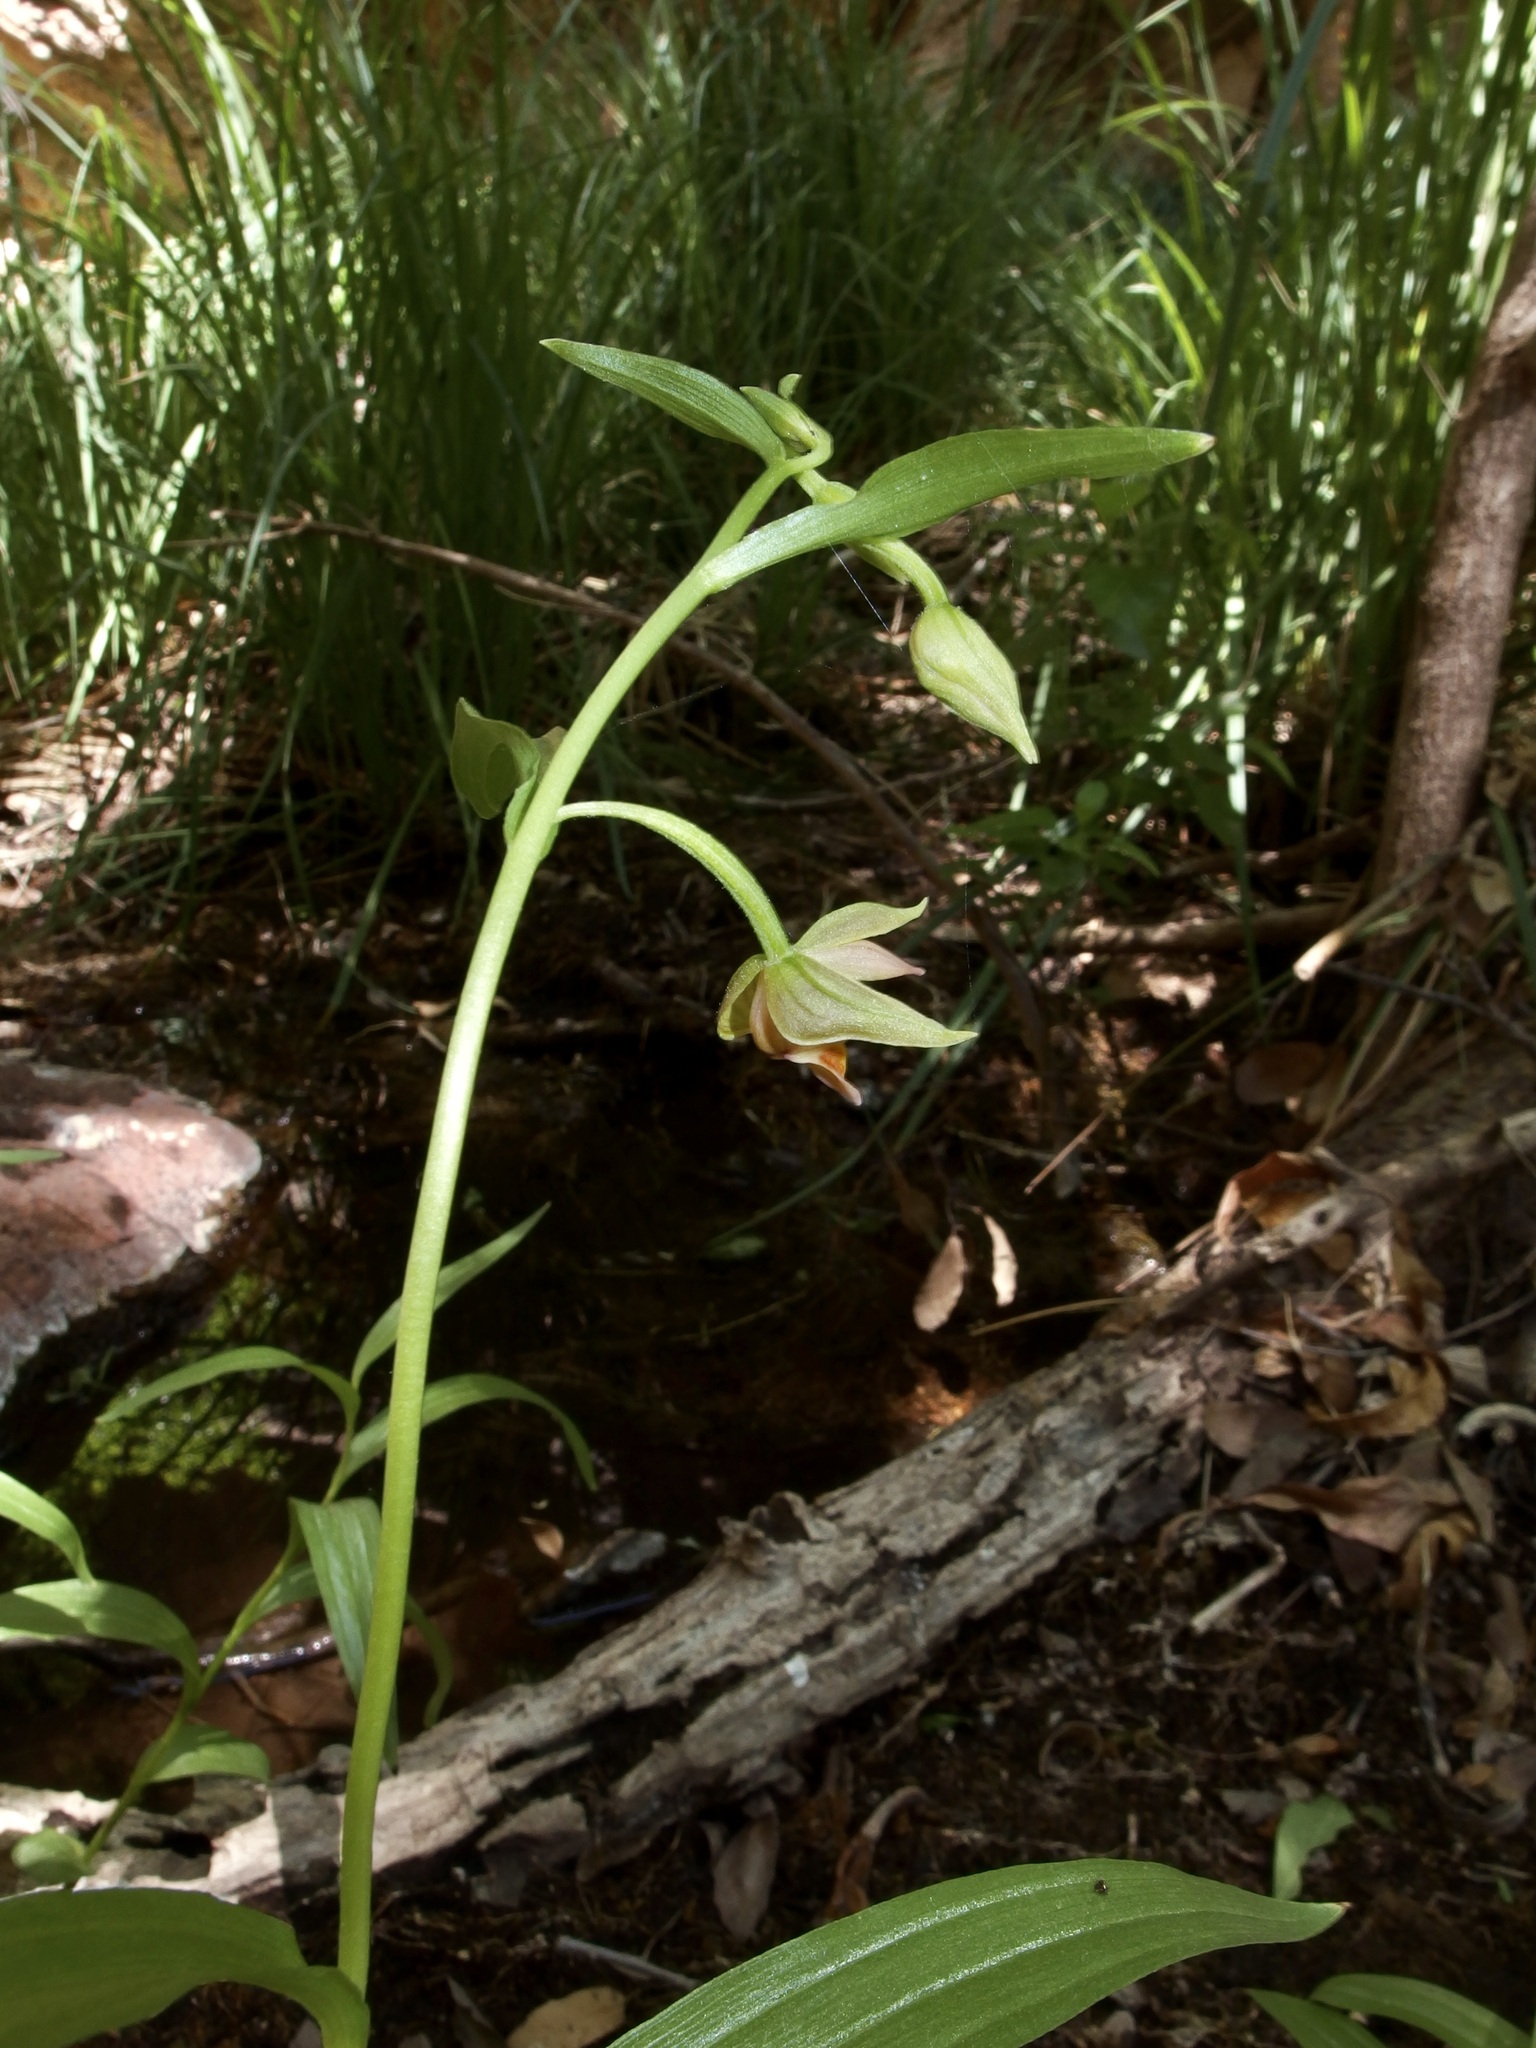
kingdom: Plantae
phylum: Tracheophyta
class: Liliopsida
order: Asparagales
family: Orchidaceae
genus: Epipactis
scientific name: Epipactis gigantea
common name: Chatterbox
